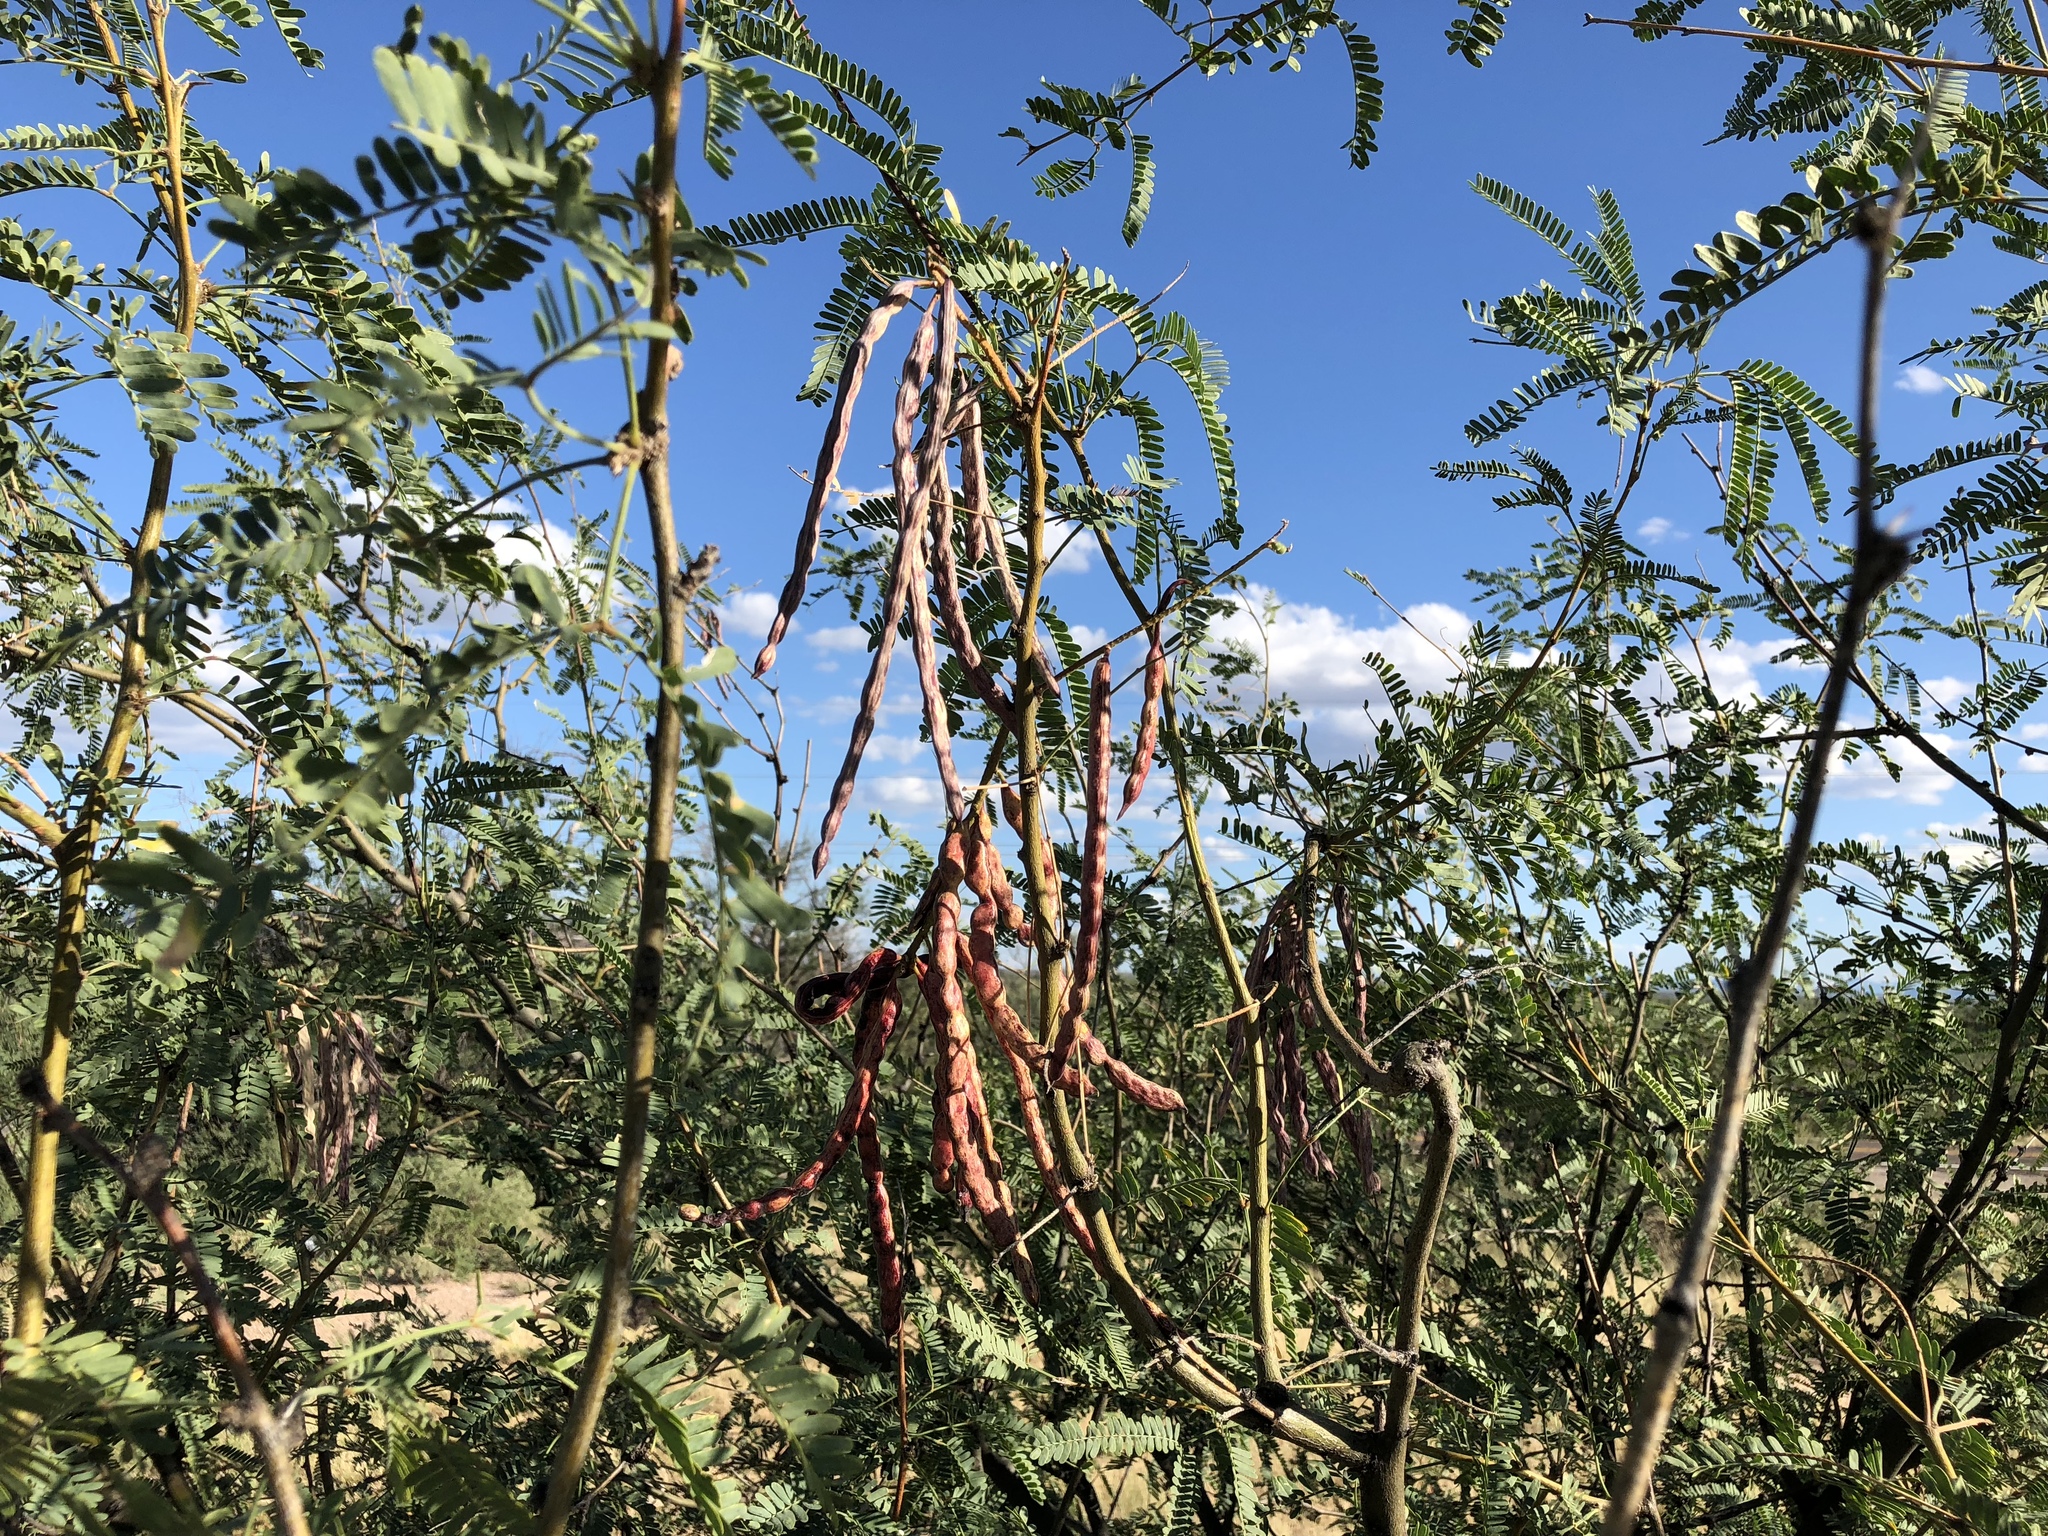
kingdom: Plantae
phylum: Tracheophyta
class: Magnoliopsida
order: Fabales
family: Fabaceae
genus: Prosopis
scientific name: Prosopis velutina
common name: Velvet mesquite
